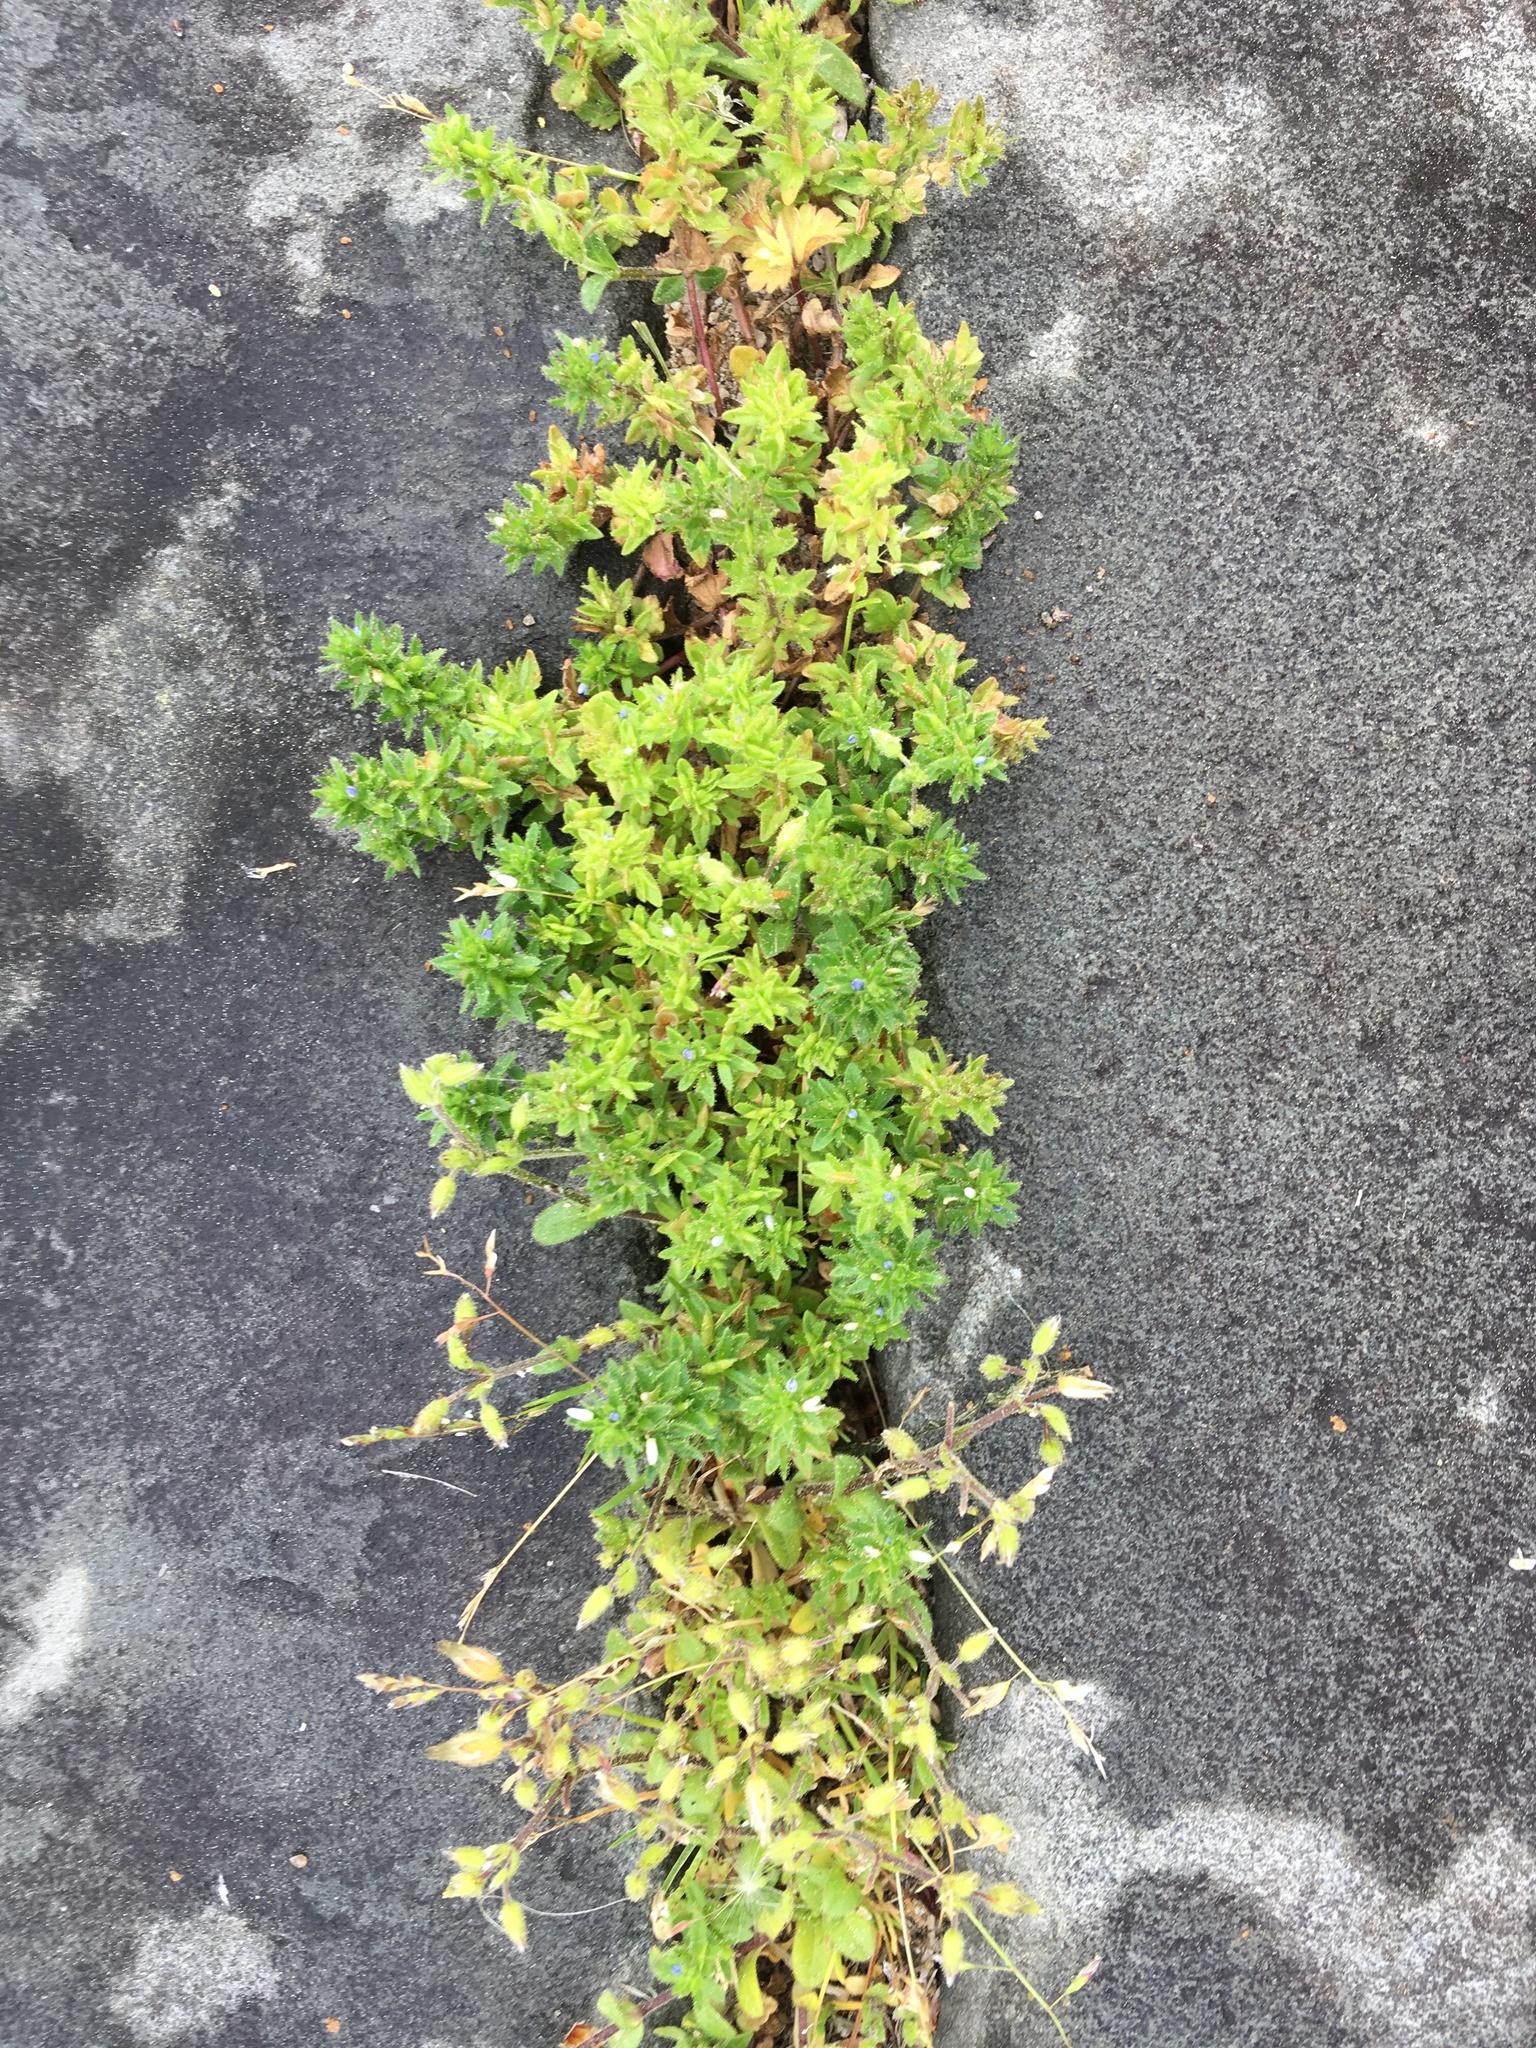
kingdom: Plantae
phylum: Tracheophyta
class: Magnoliopsida
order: Lamiales
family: Plantaginaceae
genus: Veronica
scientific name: Veronica arvensis
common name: Corn speedwell
